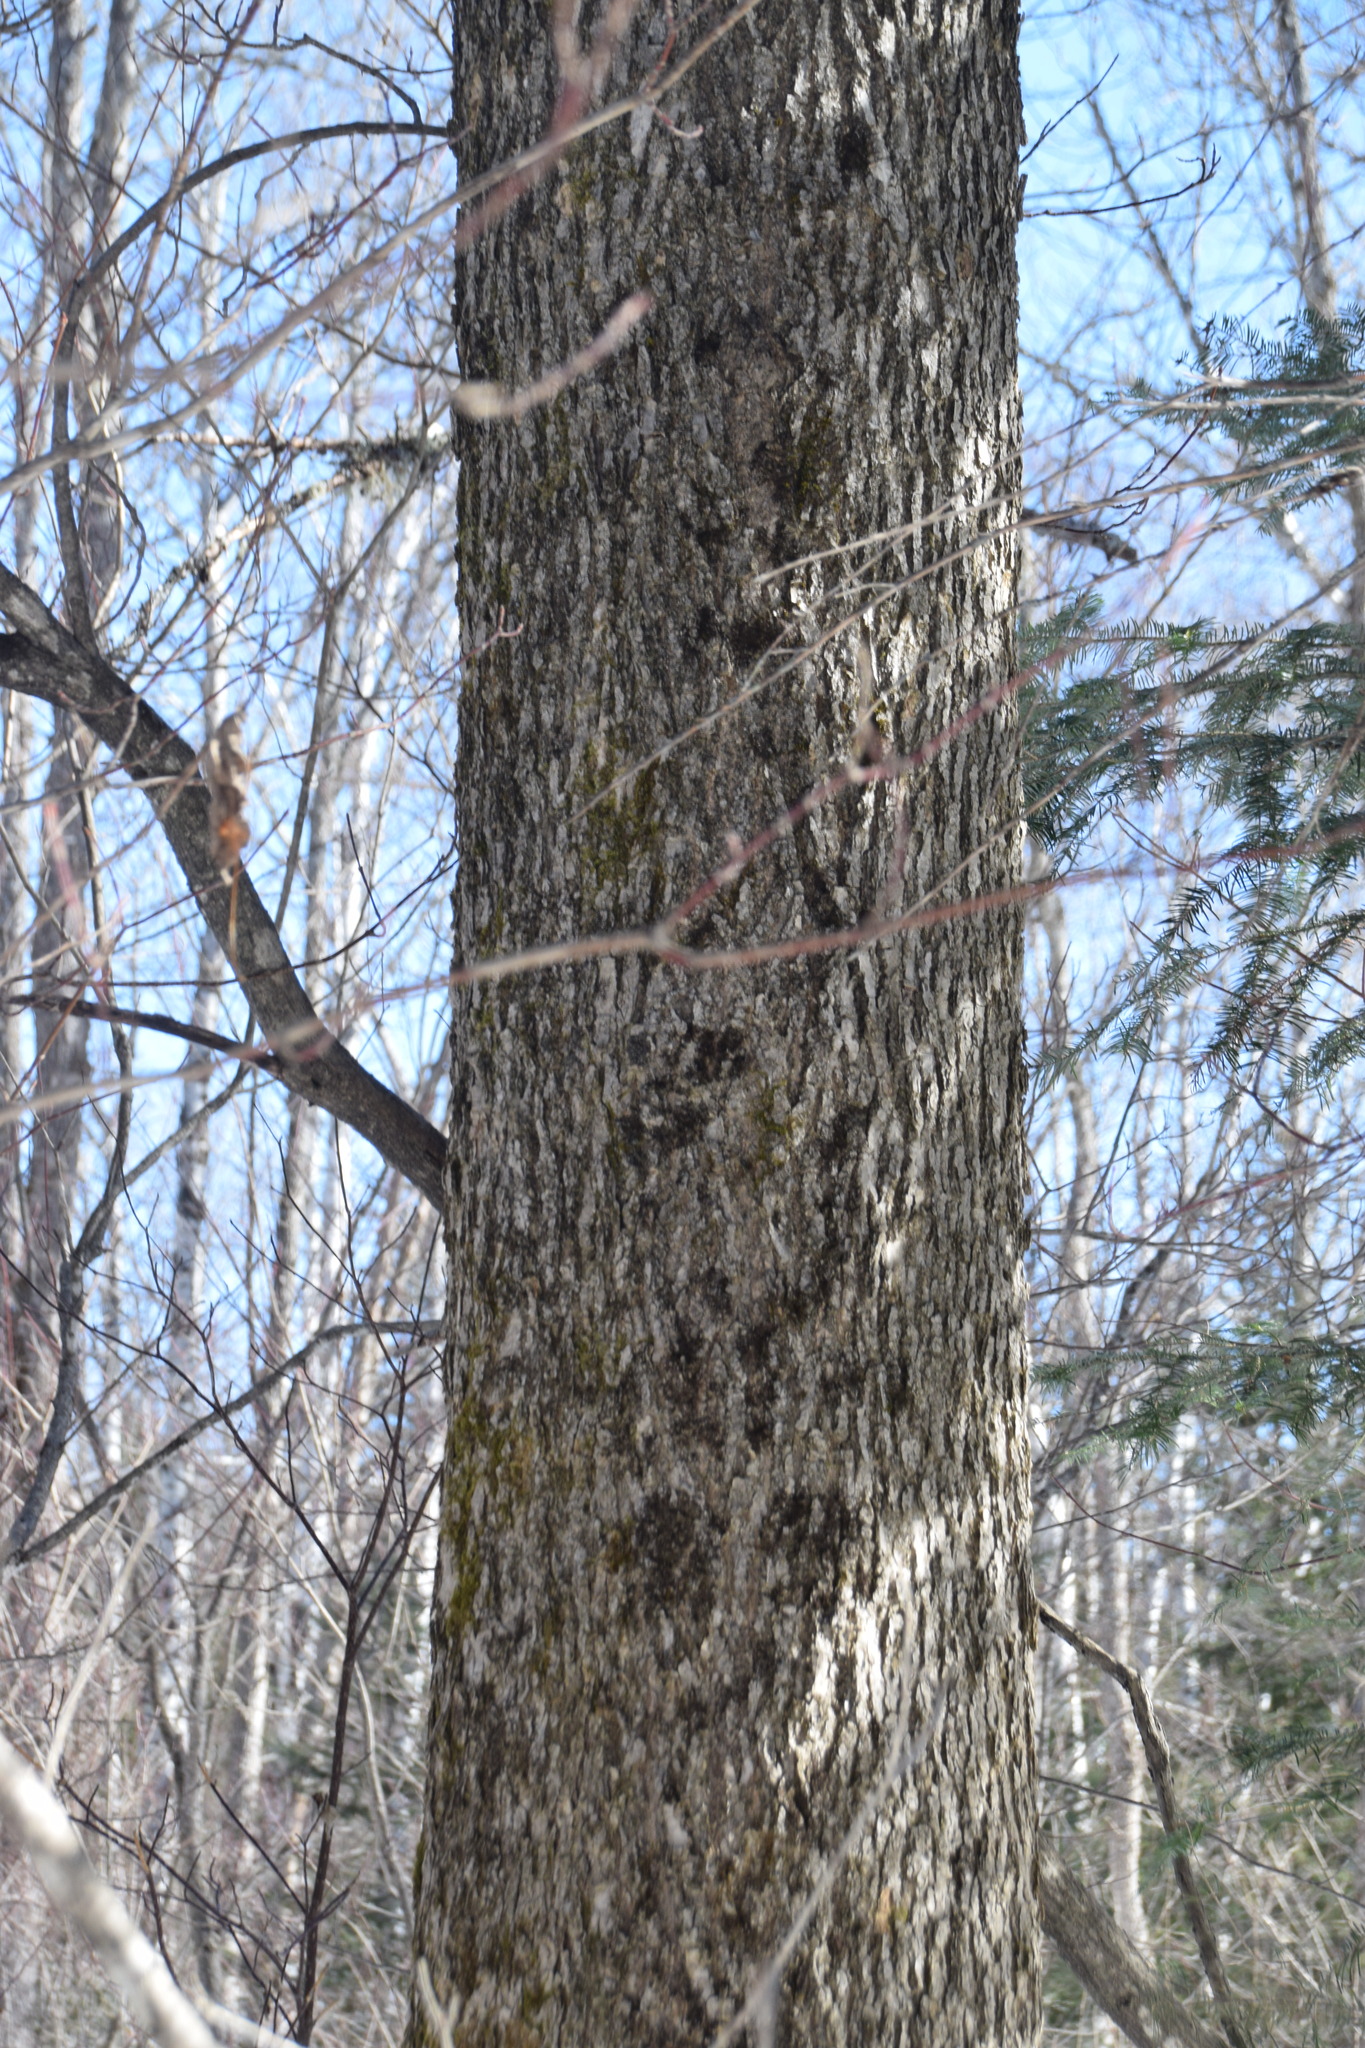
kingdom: Plantae
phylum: Tracheophyta
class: Magnoliopsida
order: Lamiales
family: Oleaceae
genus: Fraxinus
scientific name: Fraxinus nigra
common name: Black ash
